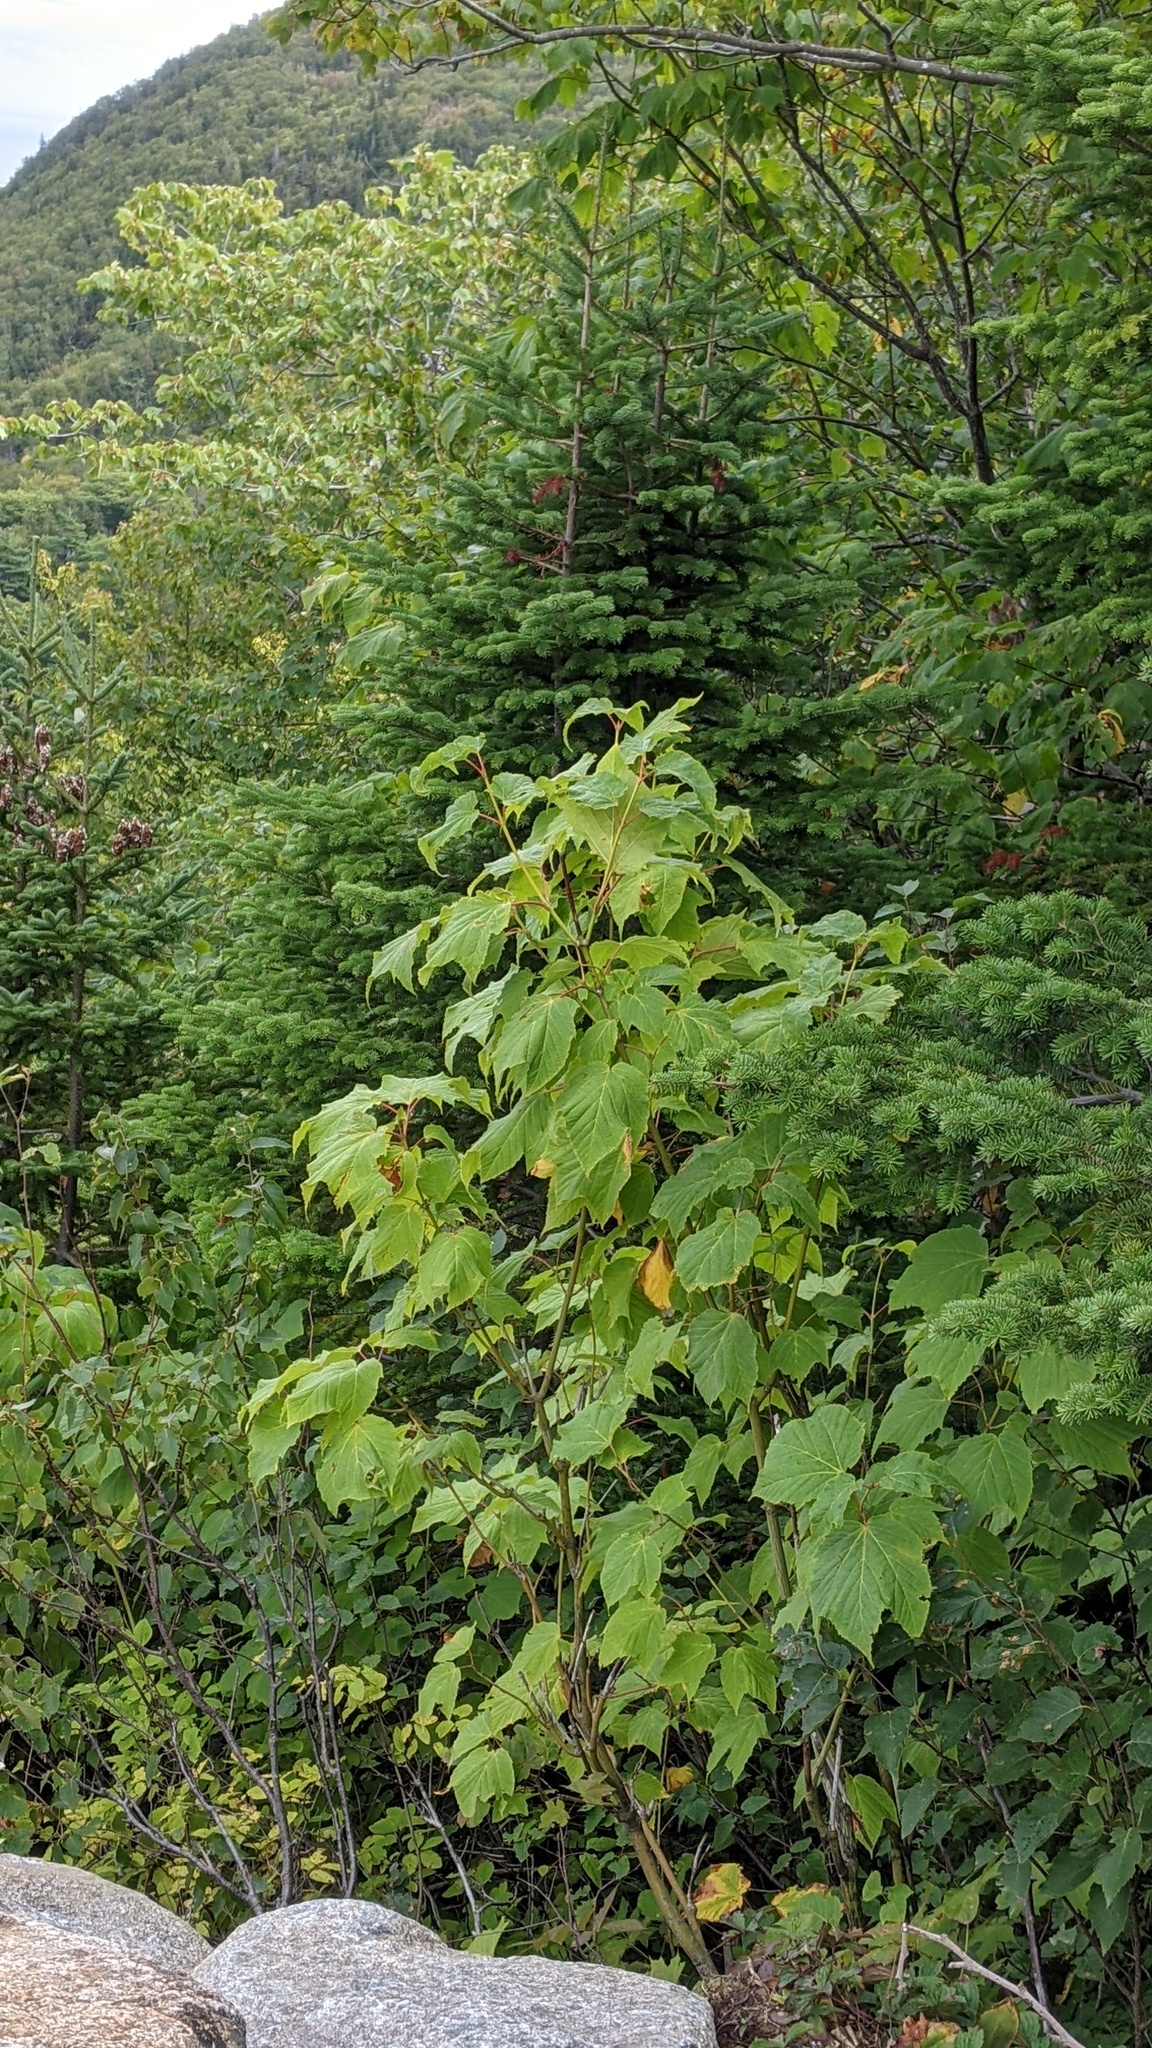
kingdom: Plantae
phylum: Tracheophyta
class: Magnoliopsida
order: Sapindales
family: Sapindaceae
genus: Acer
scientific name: Acer pensylvanicum
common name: Moosewood
